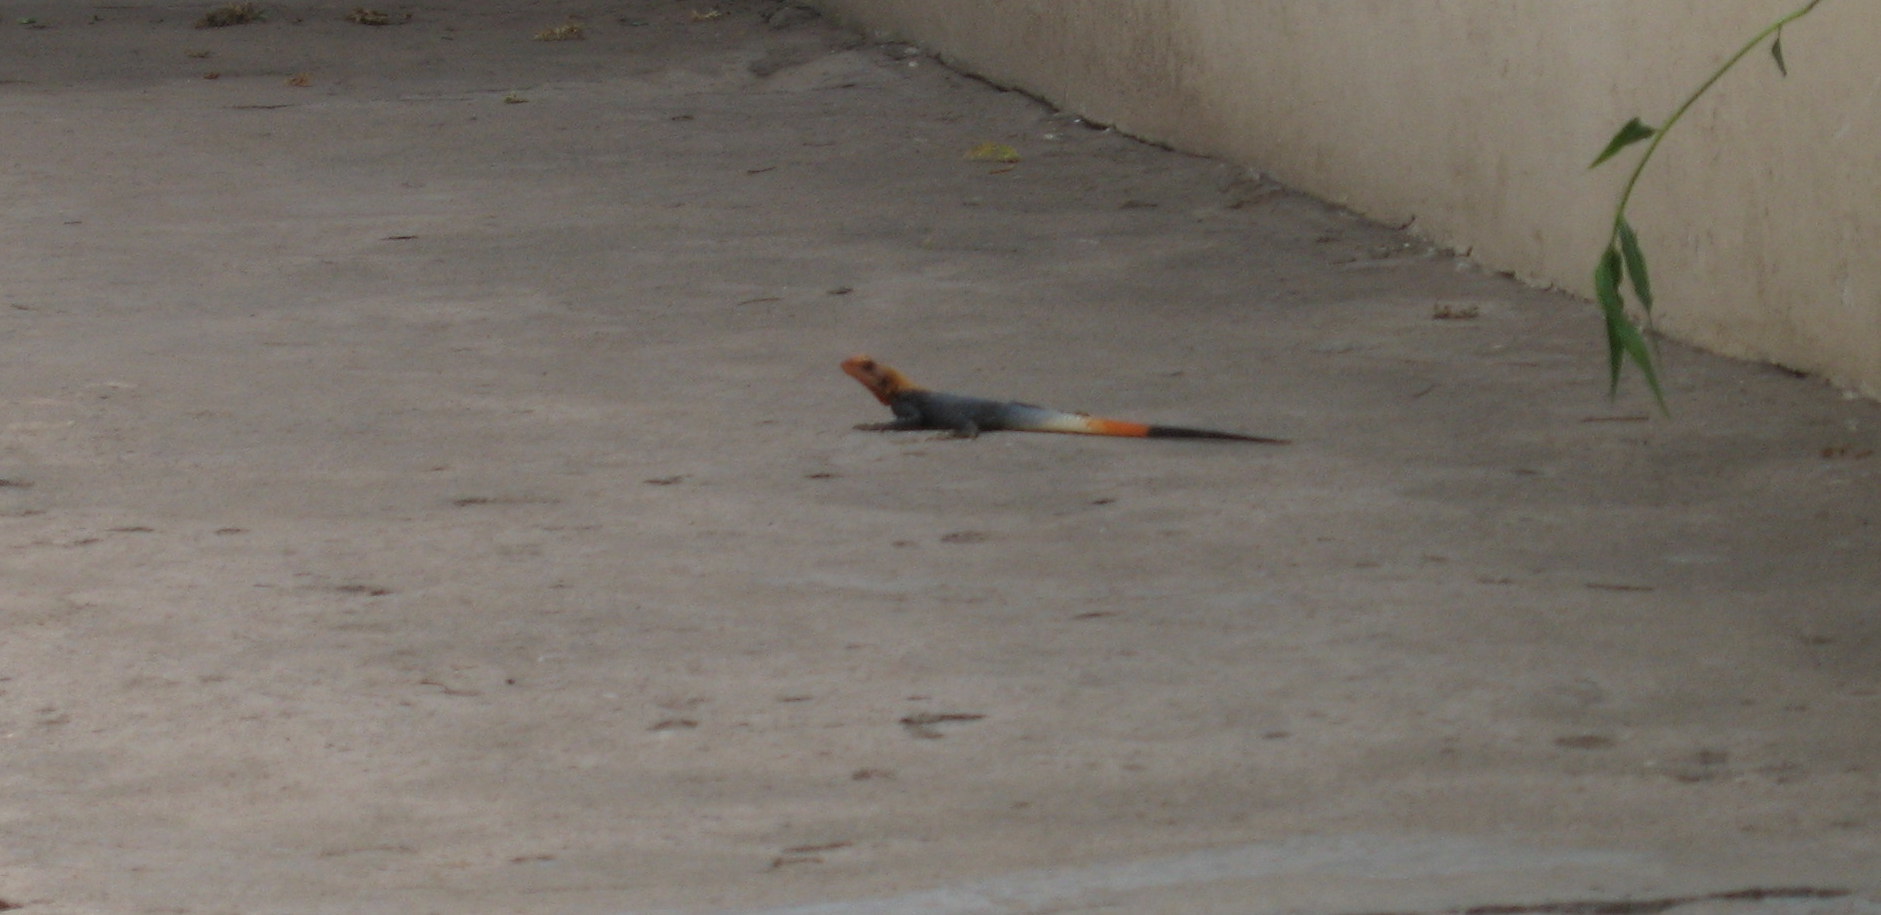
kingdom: Animalia
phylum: Chordata
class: Squamata
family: Agamidae
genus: Agama
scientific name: Agama picticauda
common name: Red-headed agama
